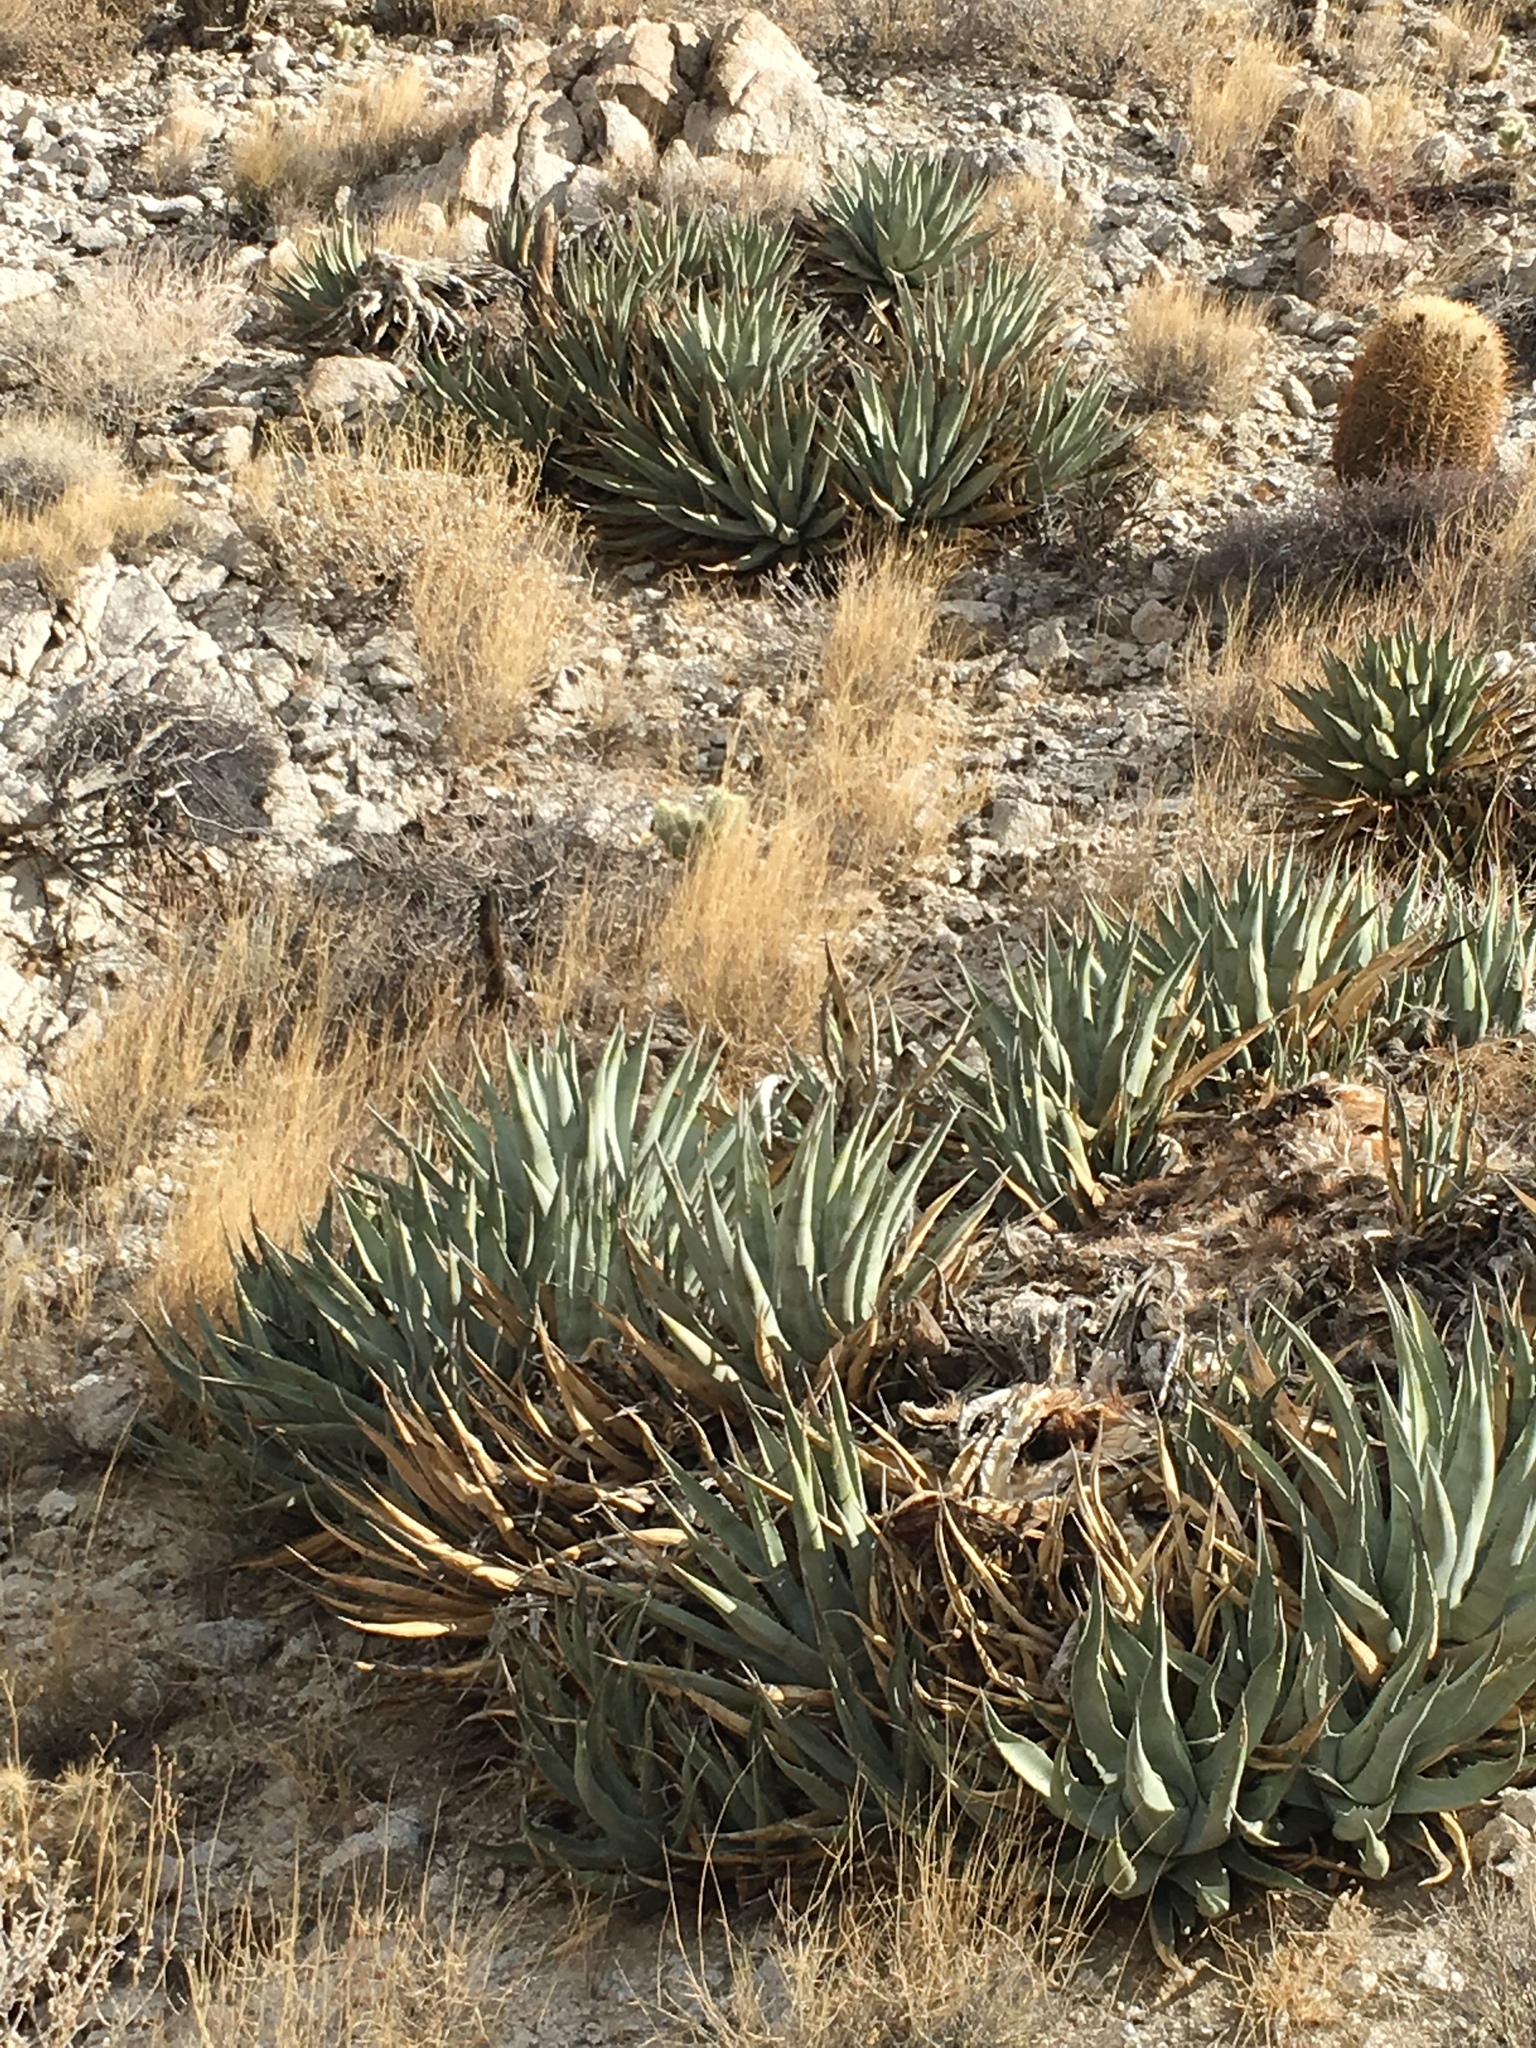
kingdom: Plantae
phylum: Tracheophyta
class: Liliopsida
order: Asparagales
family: Asparagaceae
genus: Agave
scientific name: Agave deserti
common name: Desert agave
